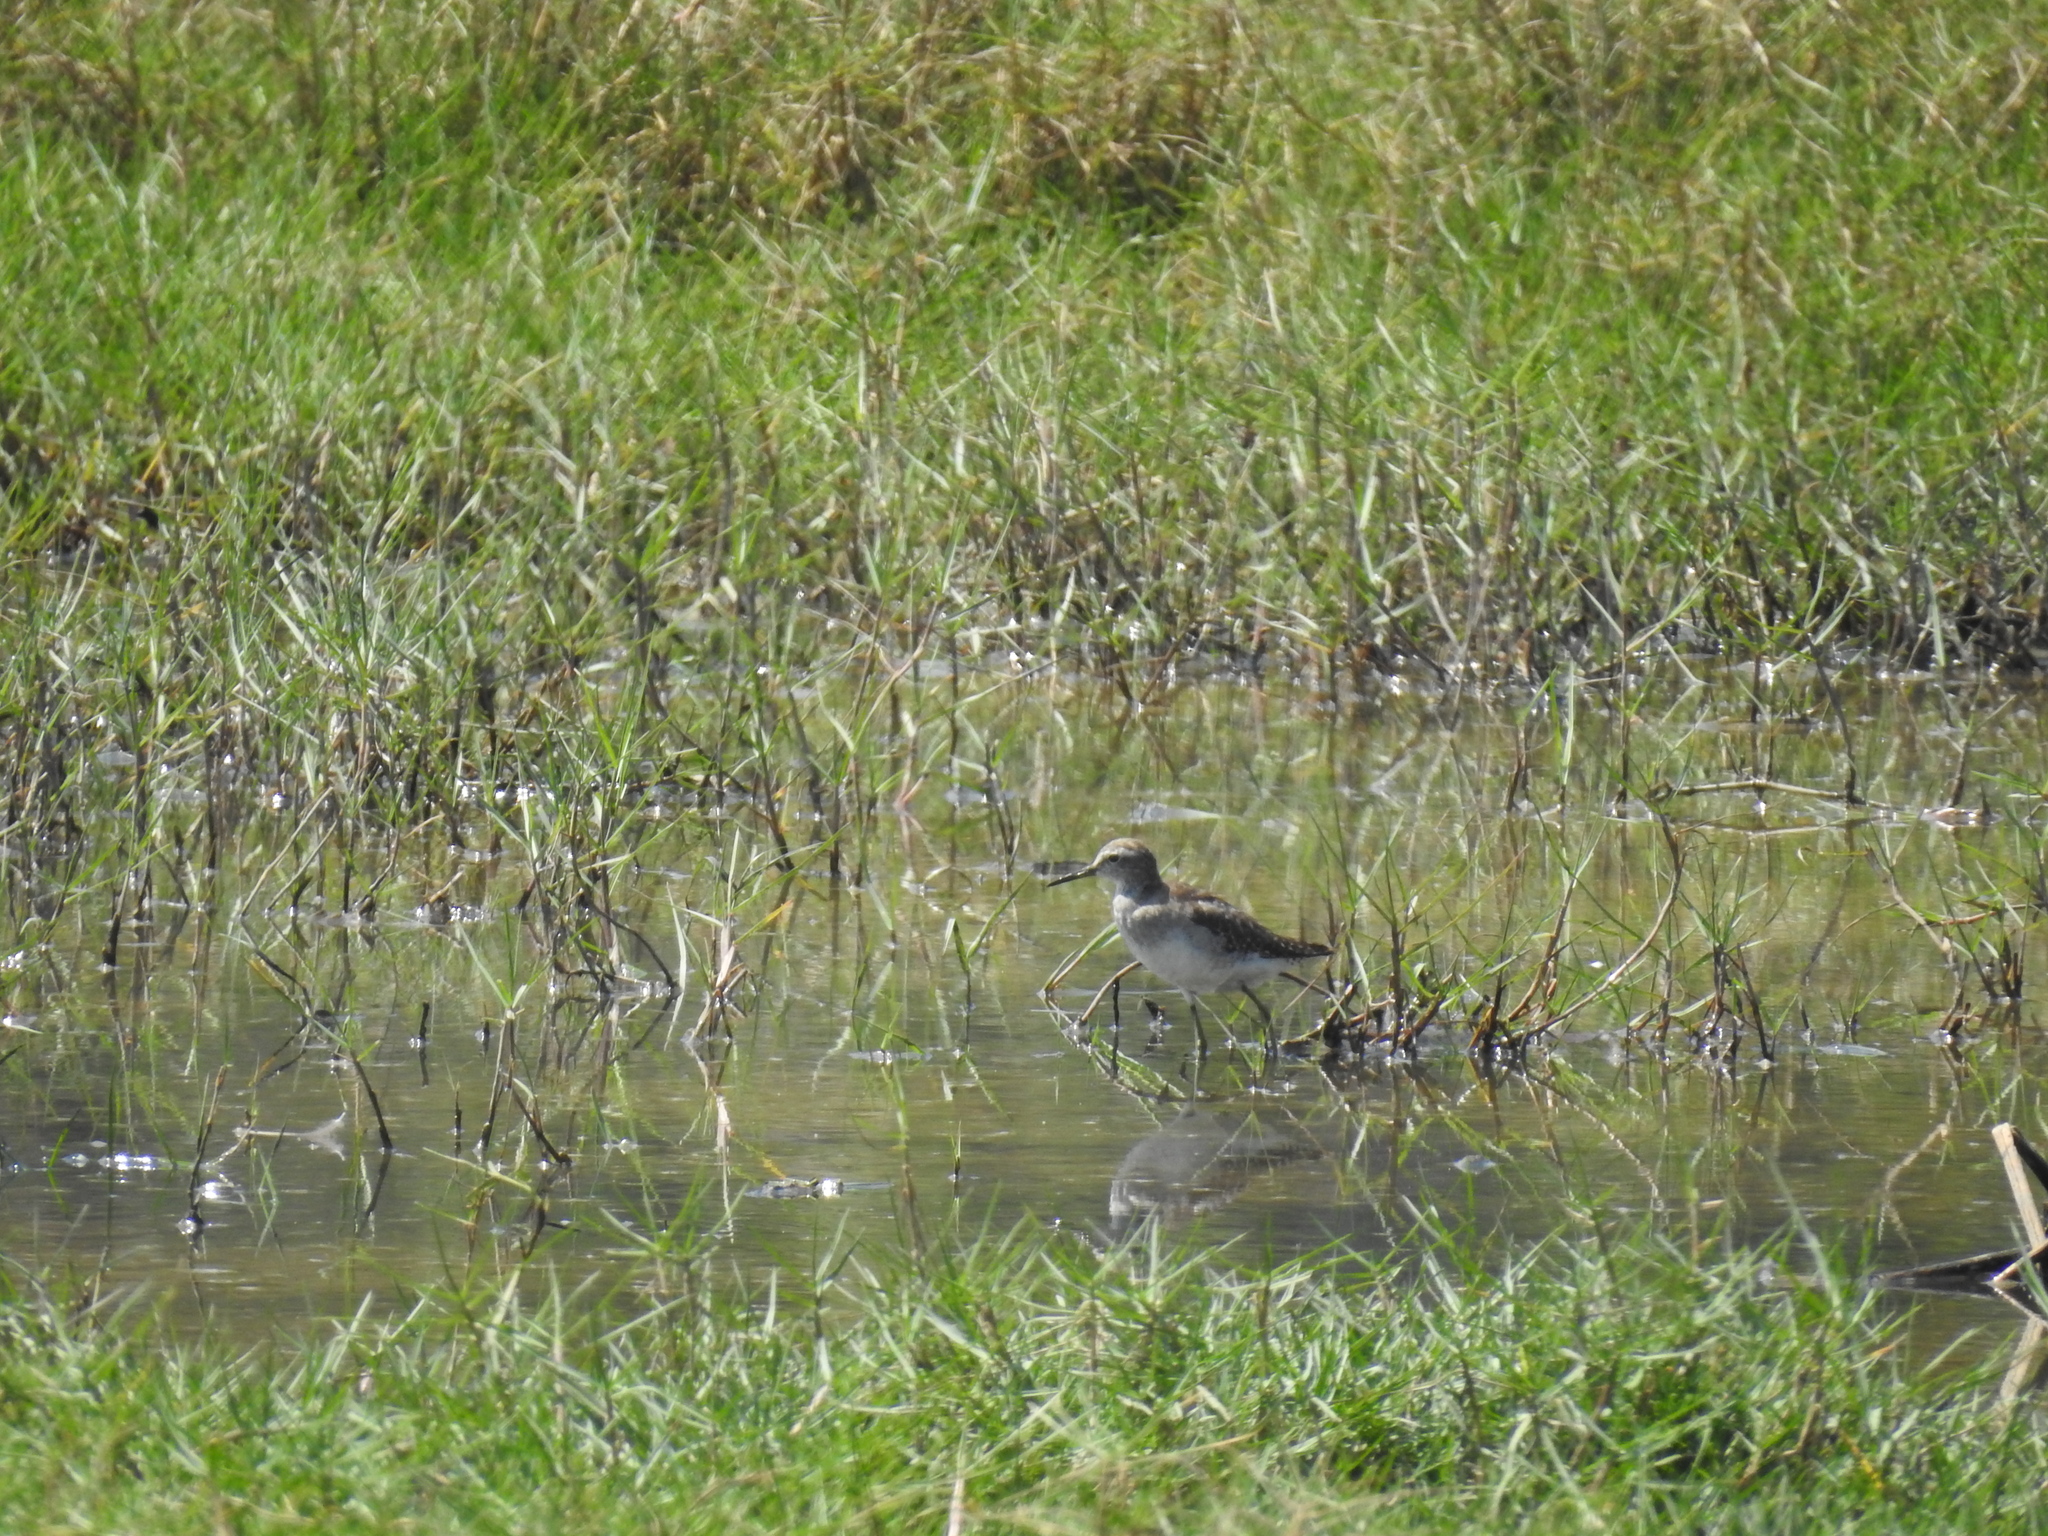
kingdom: Animalia
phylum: Chordata
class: Aves
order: Charadriiformes
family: Scolopacidae
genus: Tringa
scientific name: Tringa glareola
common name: Wood sandpiper
